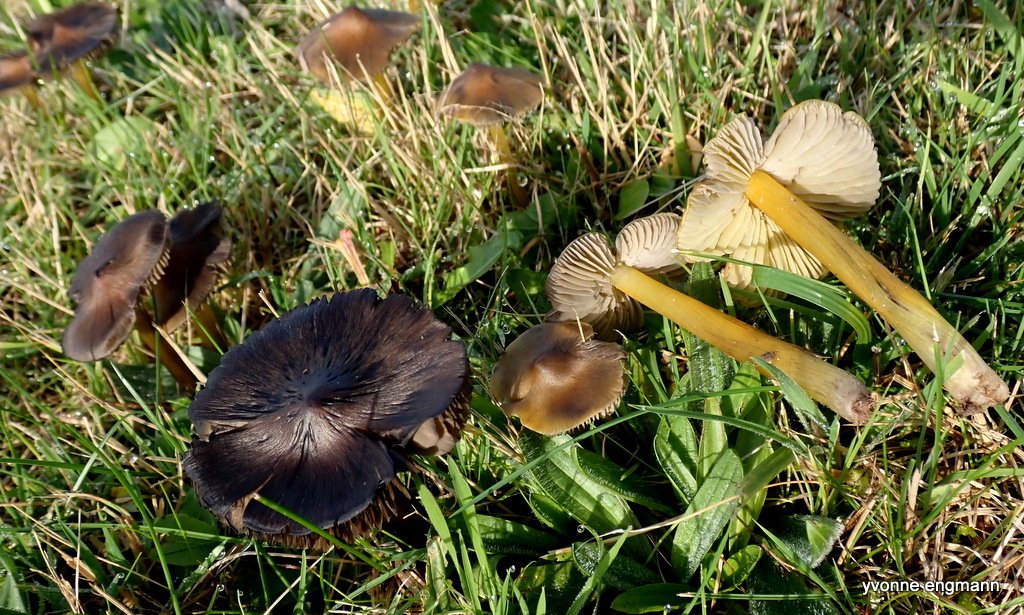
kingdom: Fungi
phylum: Basidiomycota
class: Agaricomycetes
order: Agaricales
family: Hygrophoraceae
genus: Hygrocybe
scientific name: Hygrocybe conica
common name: Blackening wax-cap
